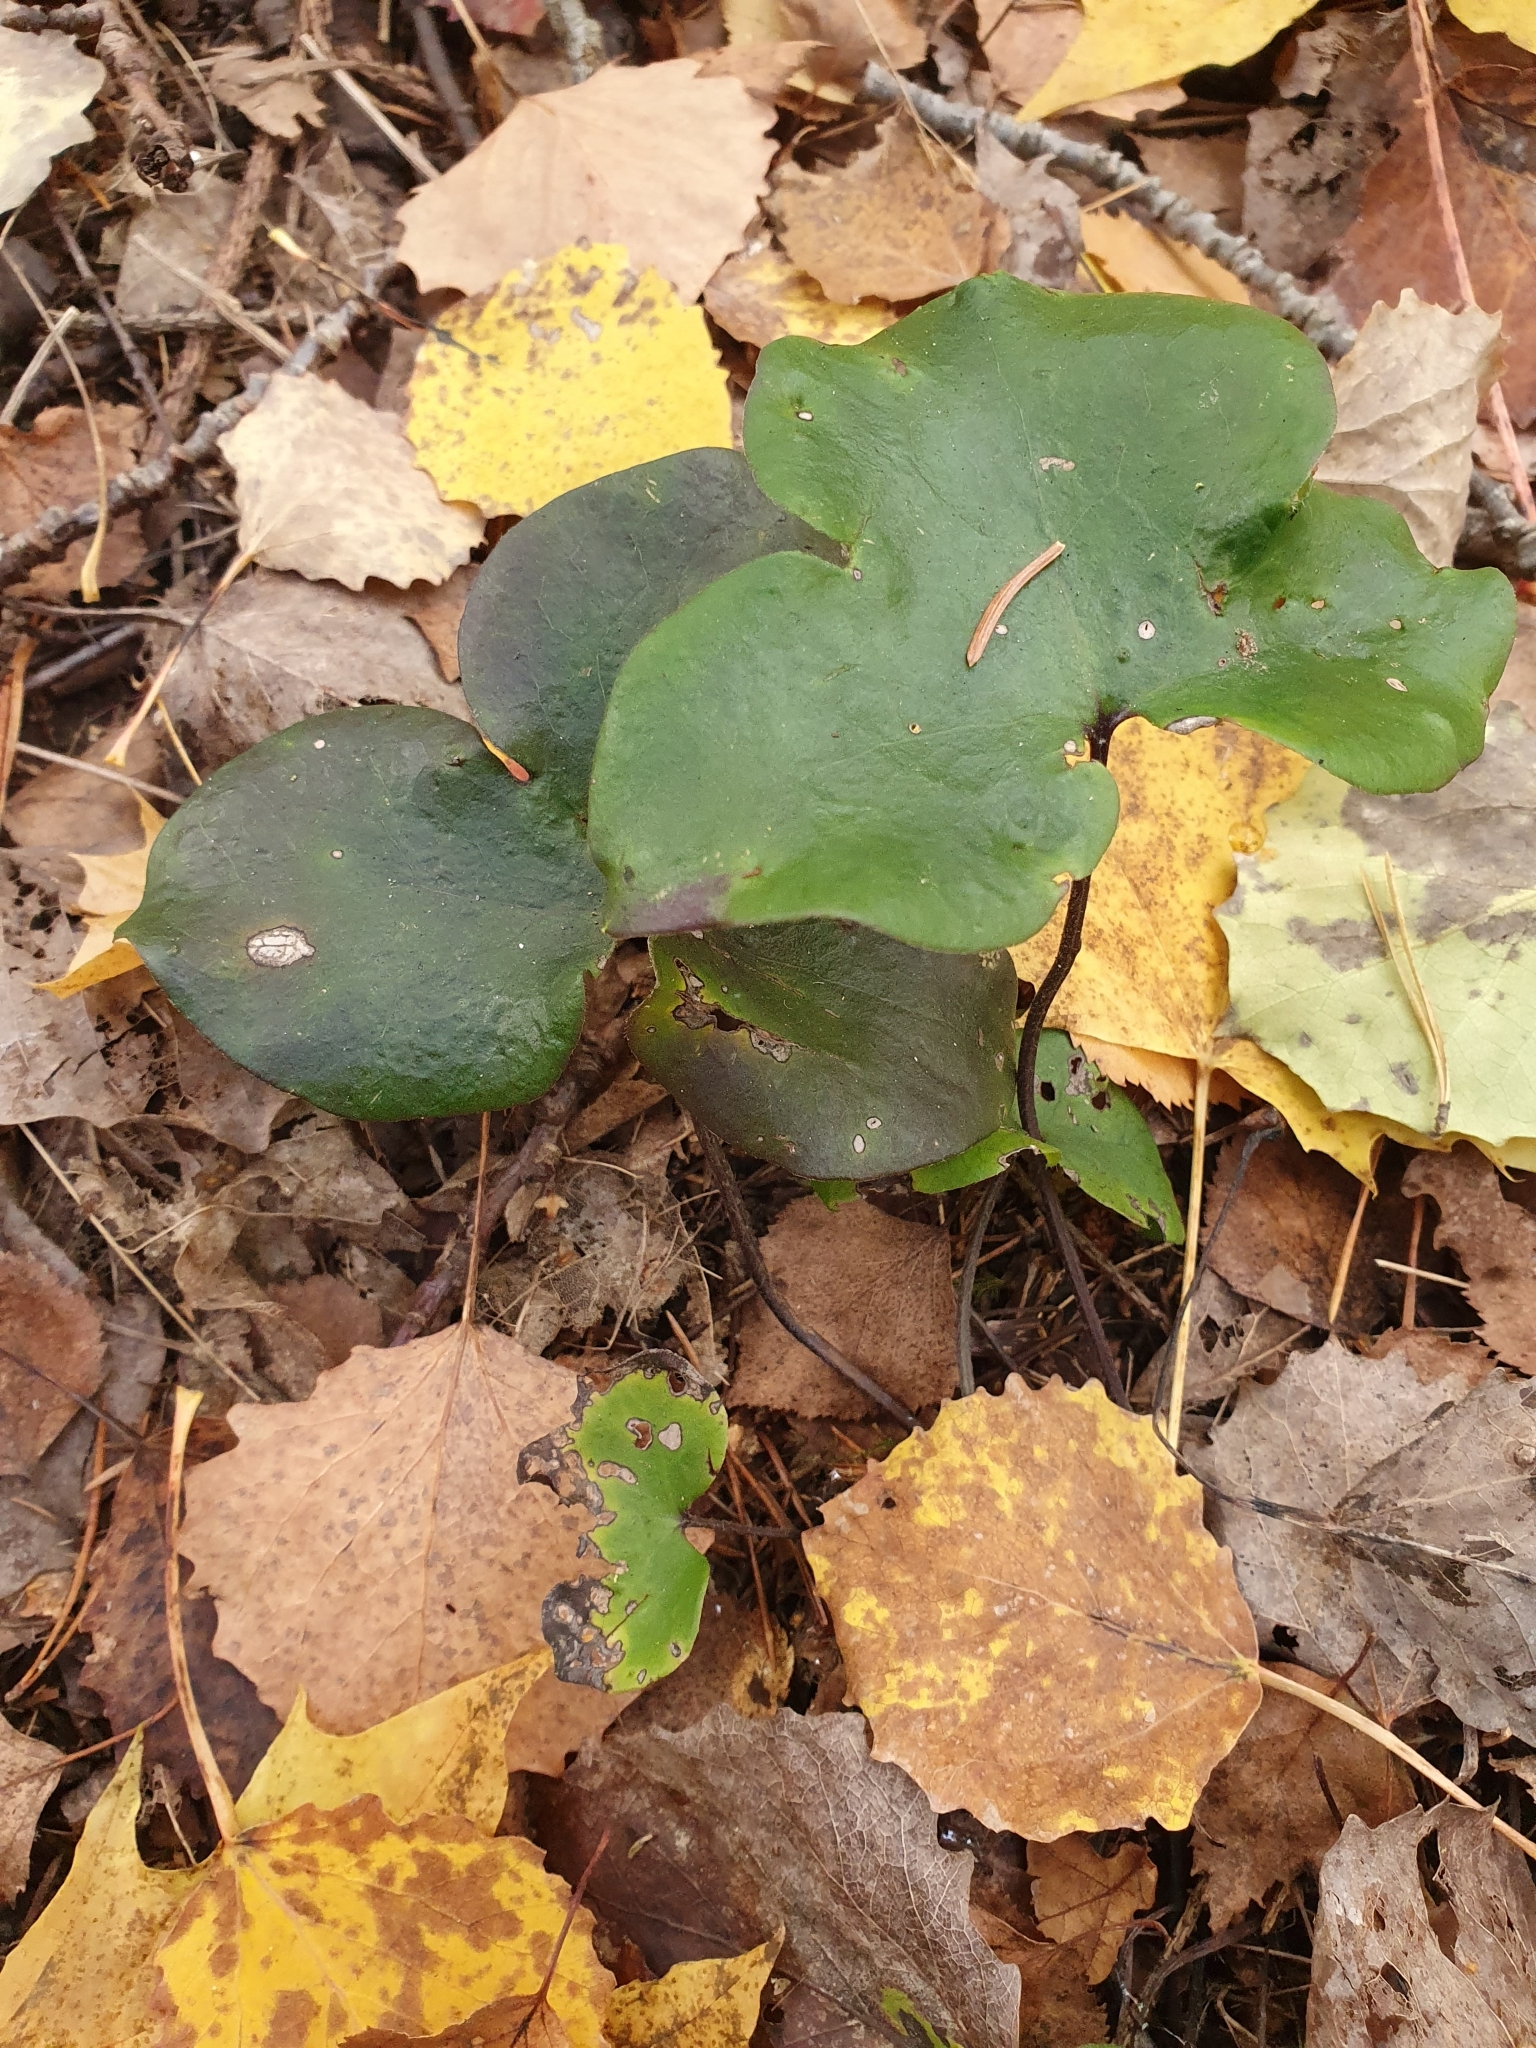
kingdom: Plantae
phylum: Tracheophyta
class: Magnoliopsida
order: Ranunculales
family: Ranunculaceae
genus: Hepatica
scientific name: Hepatica nobilis
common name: Liverleaf
